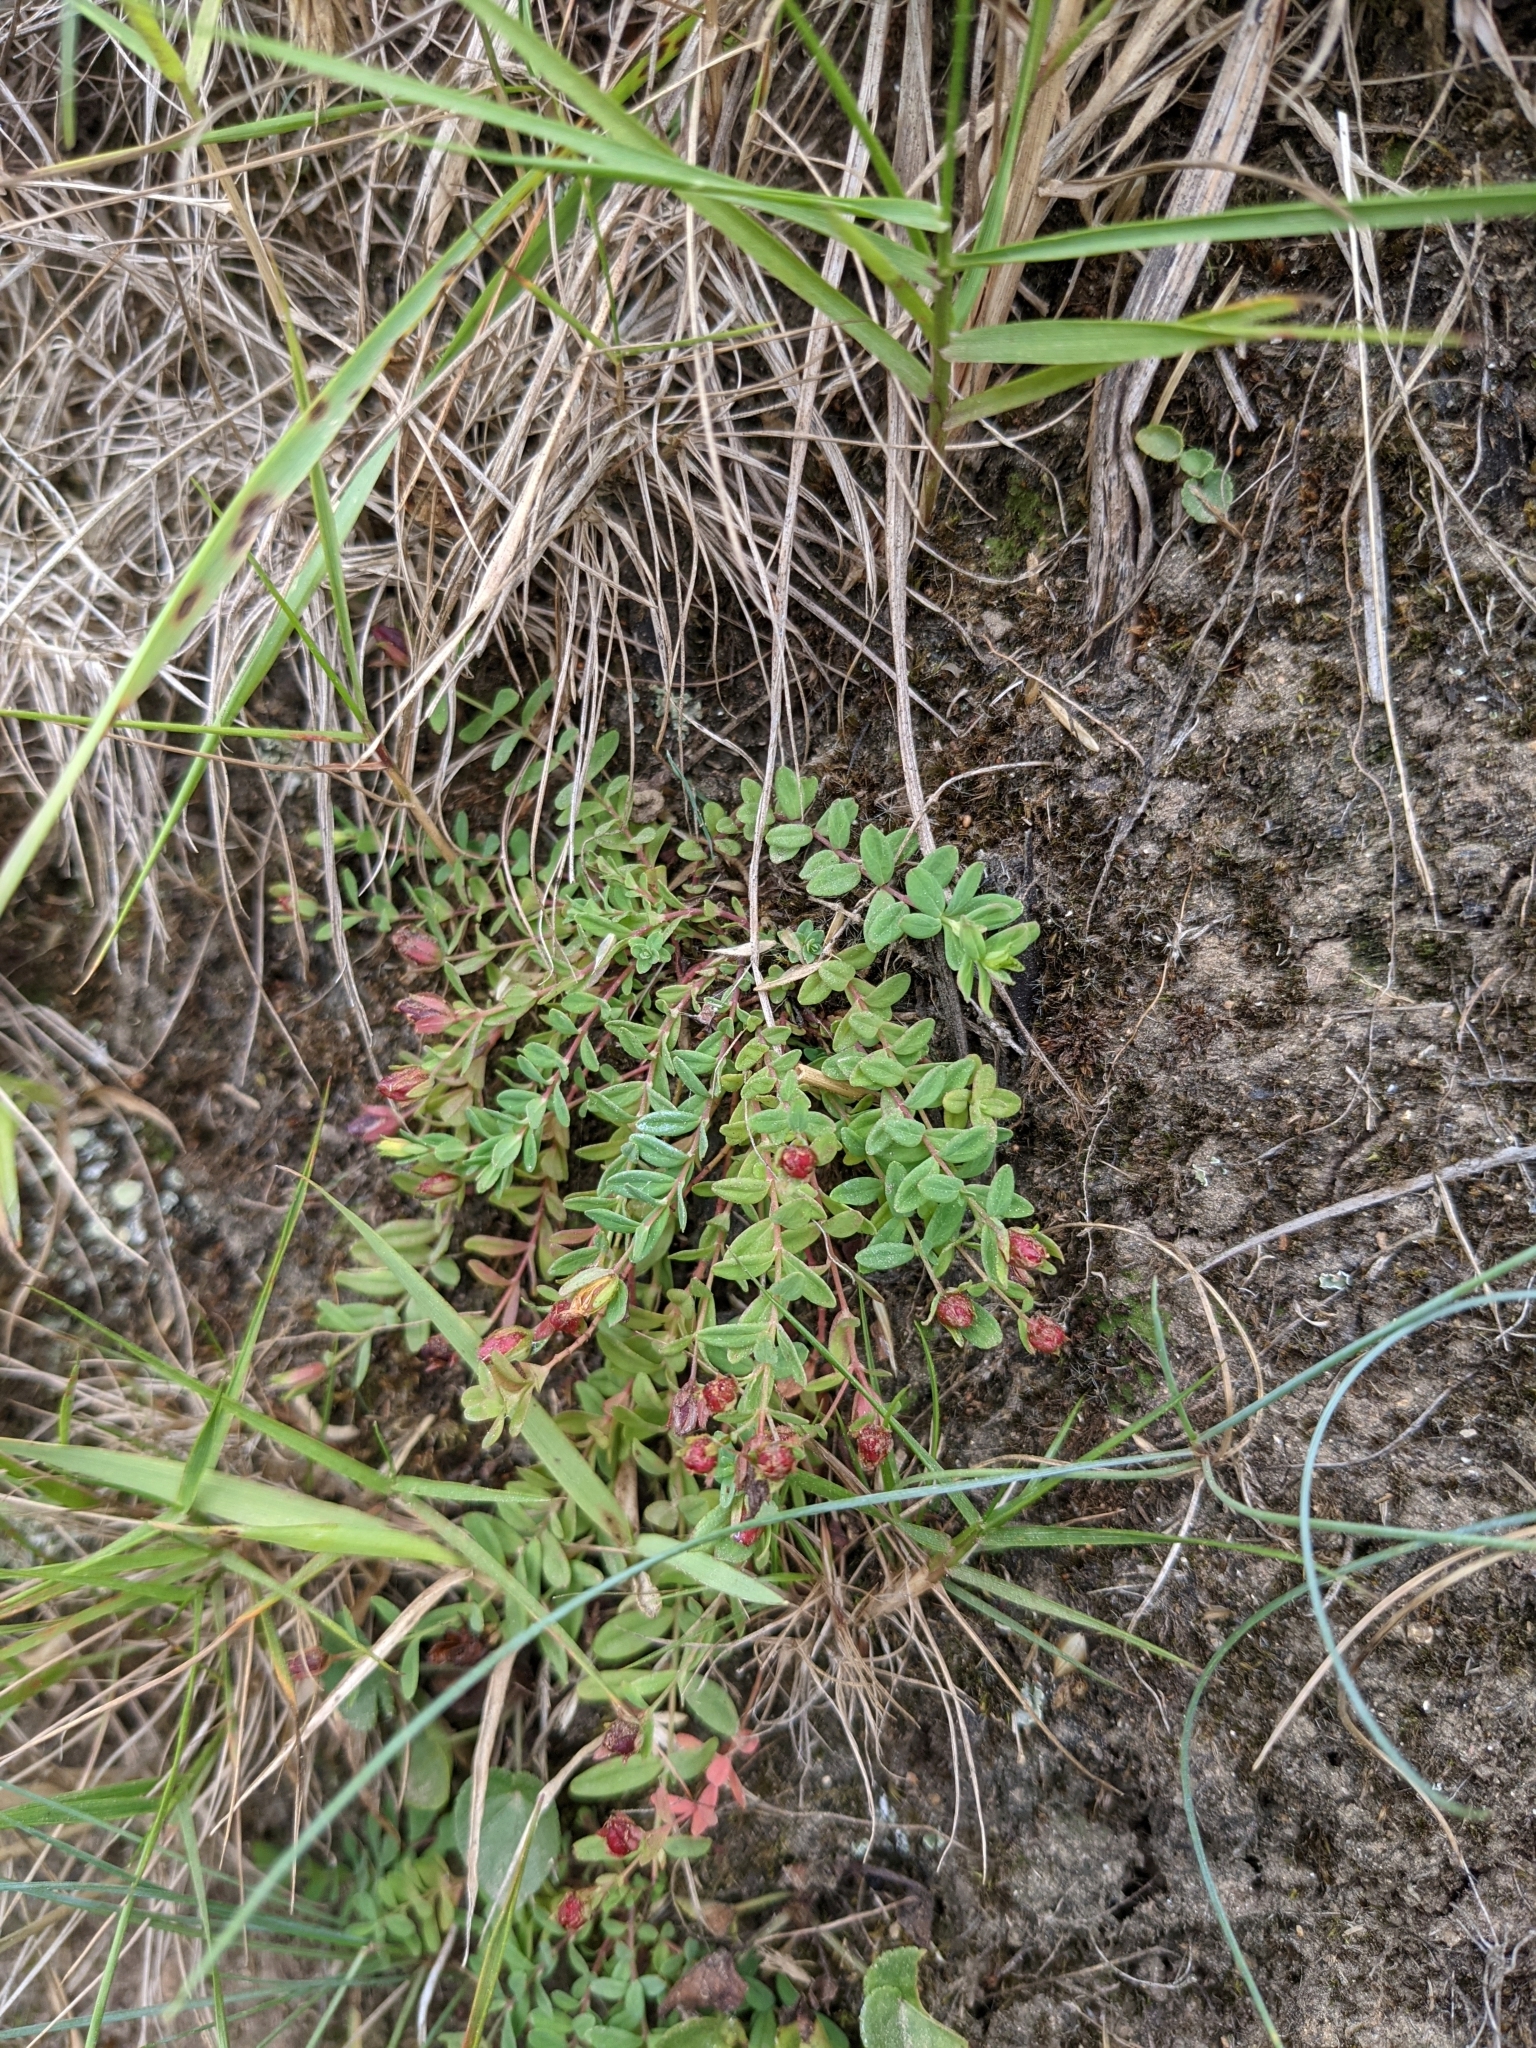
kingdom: Plantae
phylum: Tracheophyta
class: Magnoliopsida
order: Malpighiales
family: Hypericaceae
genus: Hypericum
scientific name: Hypericum humifusum
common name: Trailing st. john's-wort
